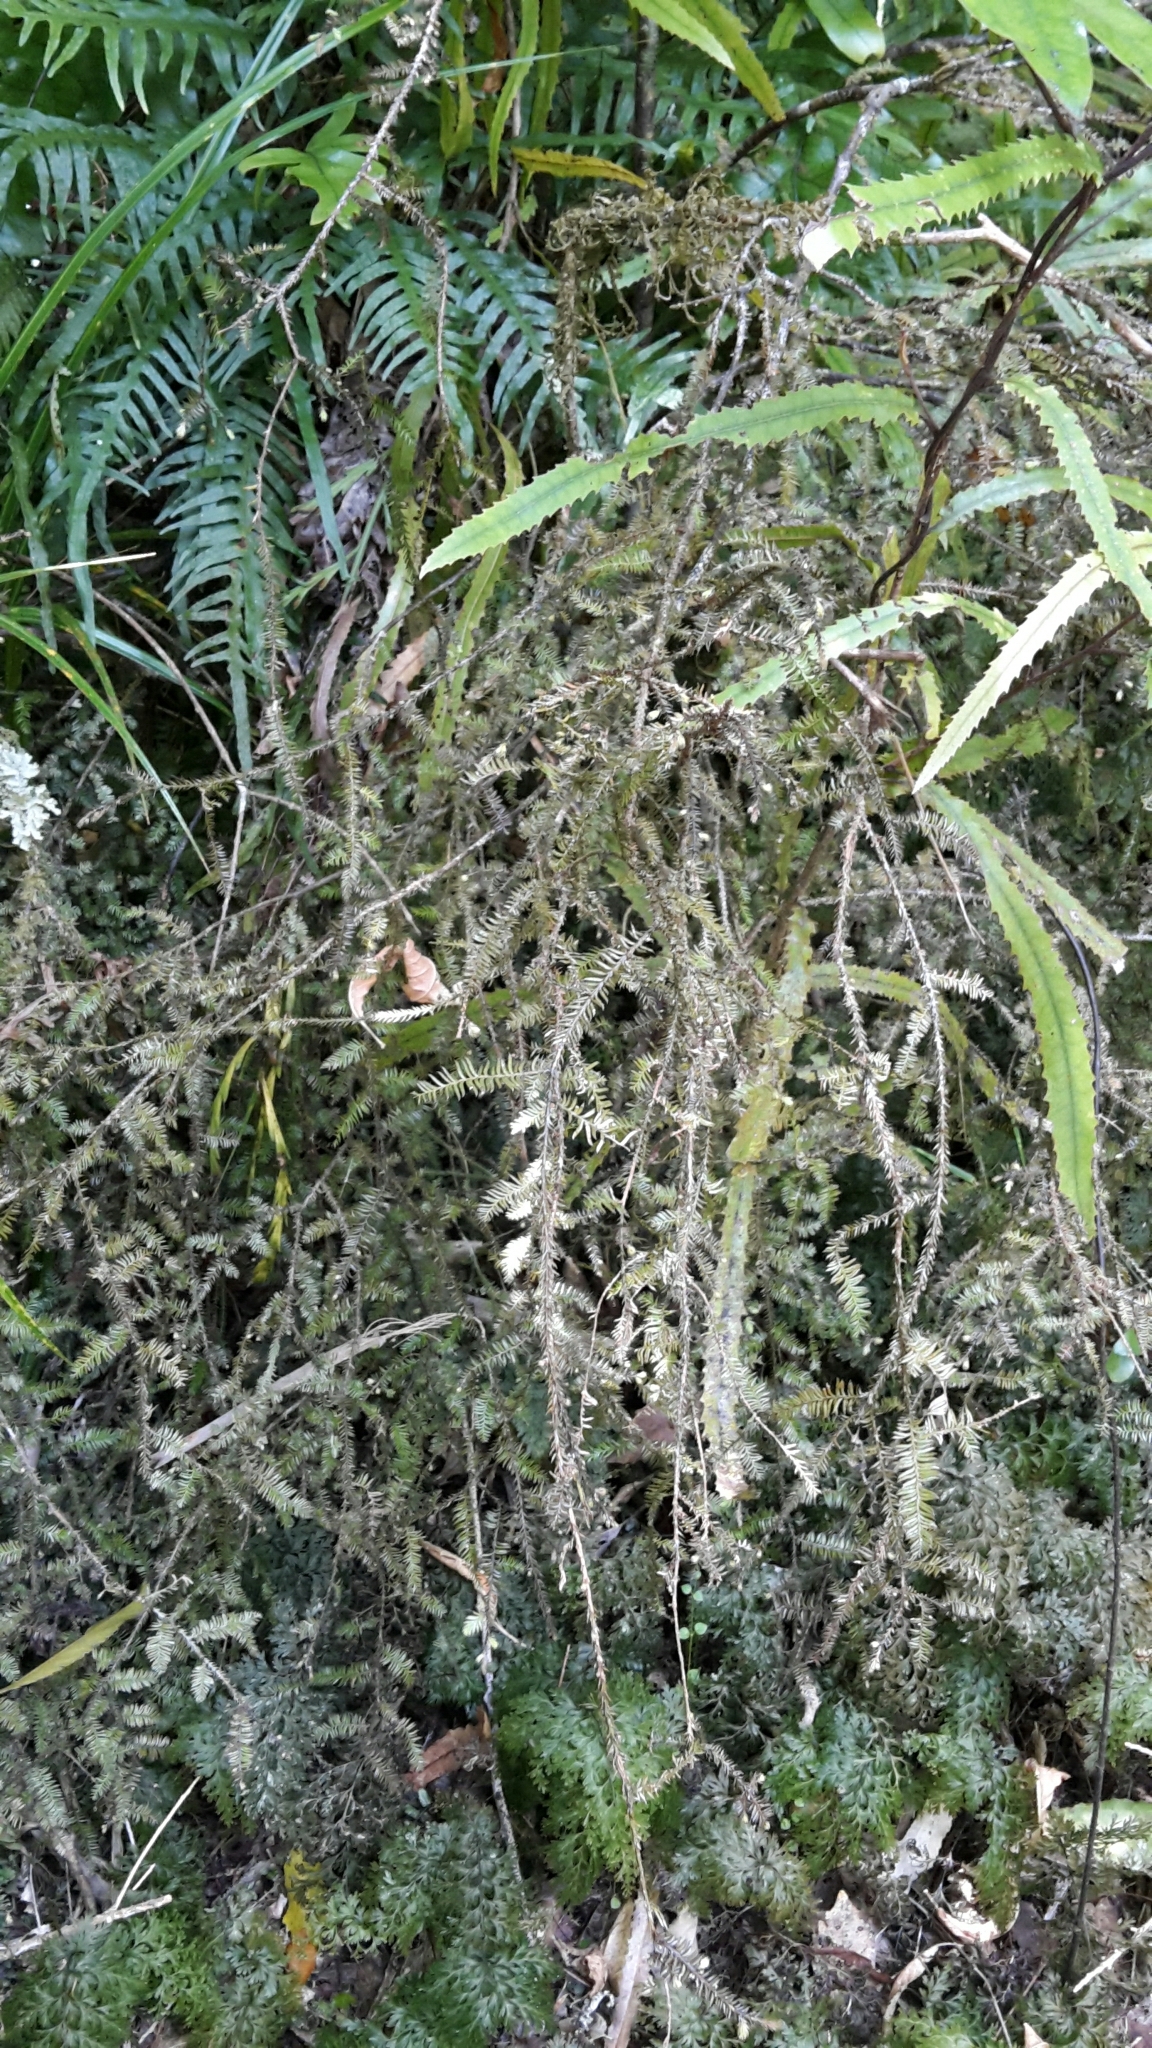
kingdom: Plantae
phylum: Tracheophyta
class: Pinopsida
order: Pinales
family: Podocarpaceae
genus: Dacrycarpus
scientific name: Dacrycarpus dacrydioides
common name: White pine
